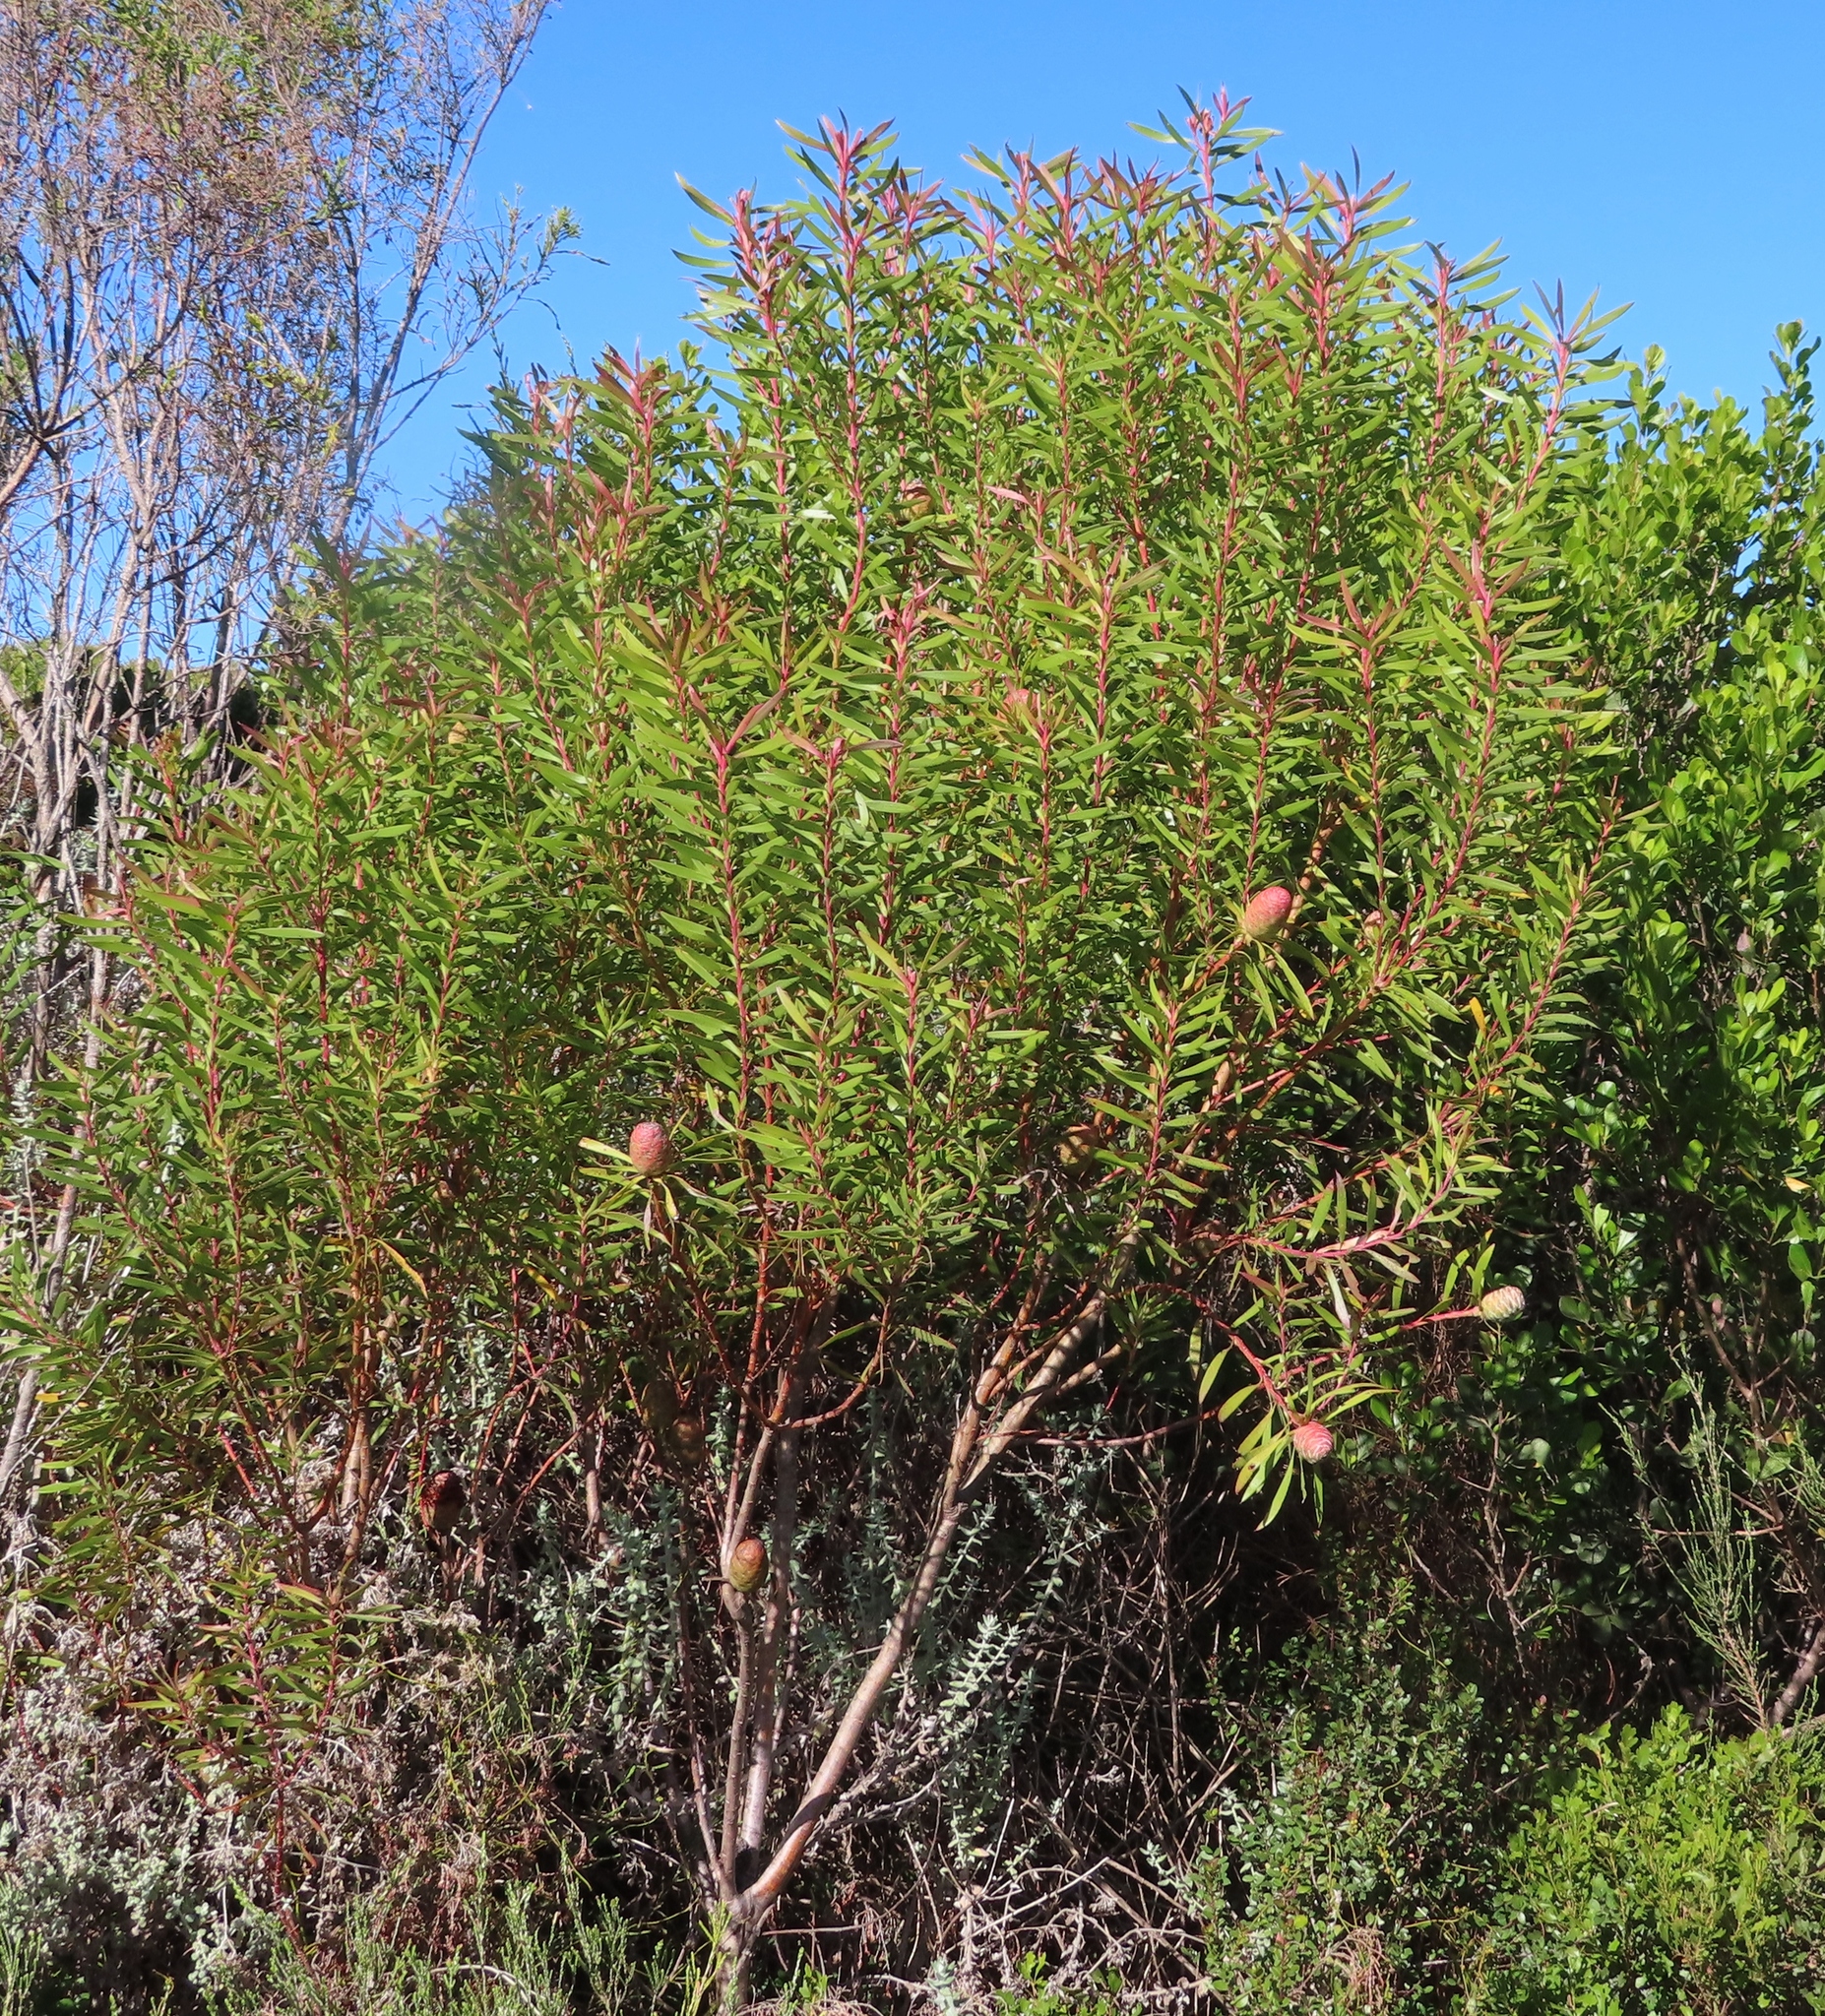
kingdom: Plantae
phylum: Tracheophyta
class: Magnoliopsida
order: Proteales
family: Proteaceae
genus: Leucadendron
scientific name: Leucadendron coniferum
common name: Dune conebush
